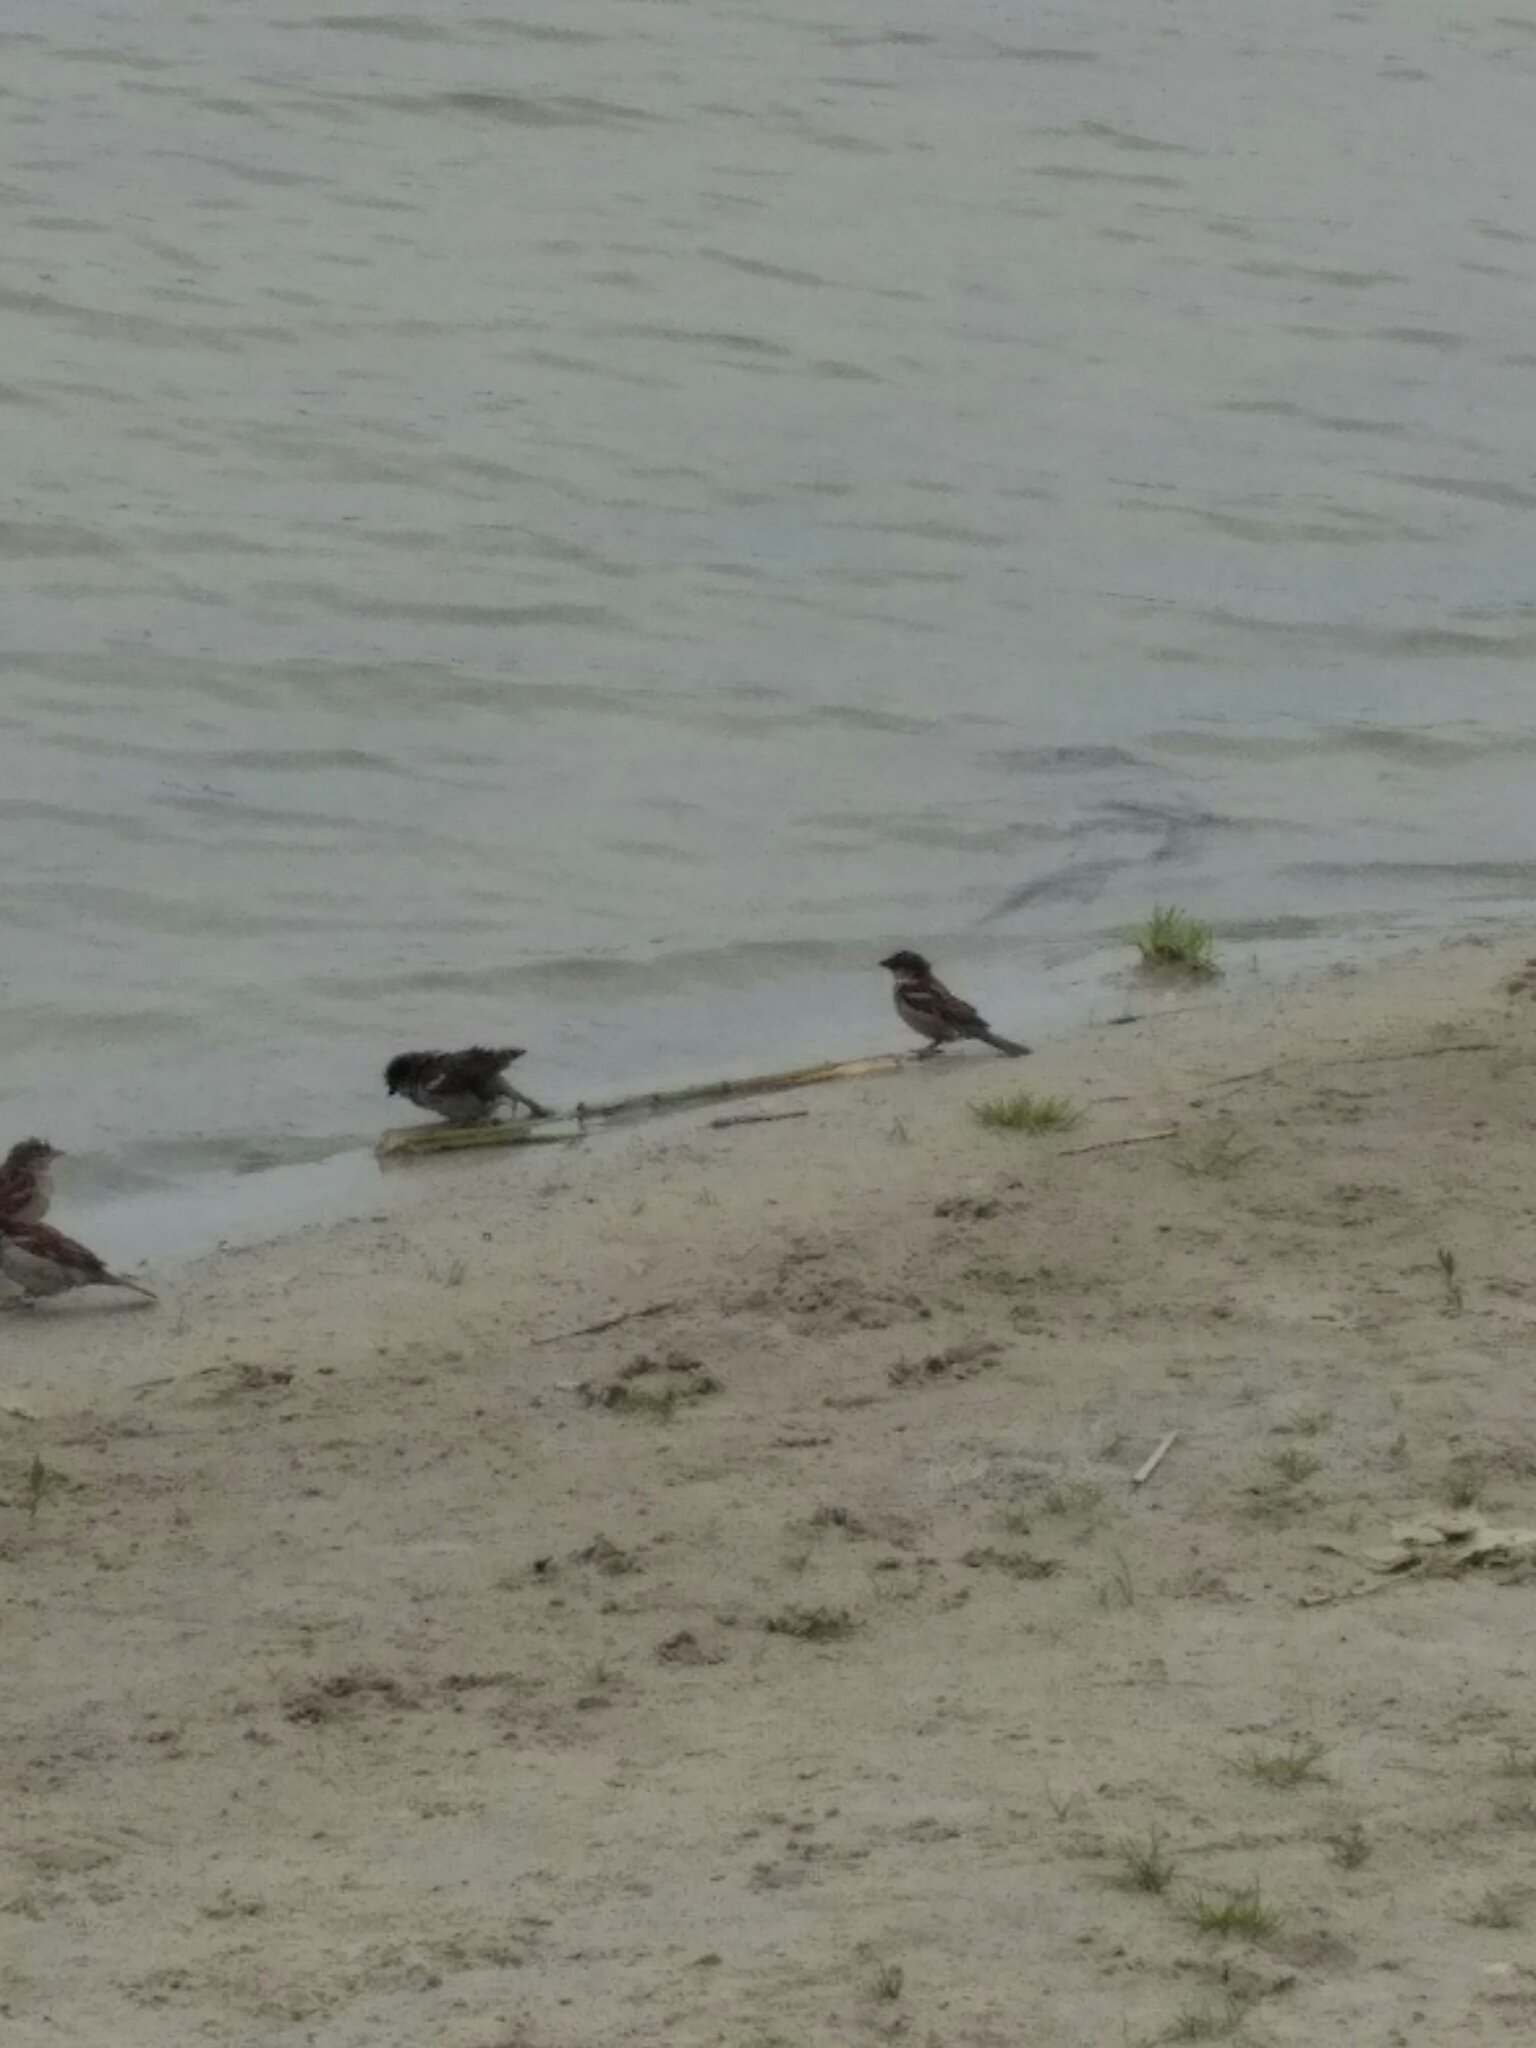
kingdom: Animalia
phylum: Chordata
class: Aves
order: Passeriformes
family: Passeridae
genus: Passer
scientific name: Passer domesticus
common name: House sparrow
